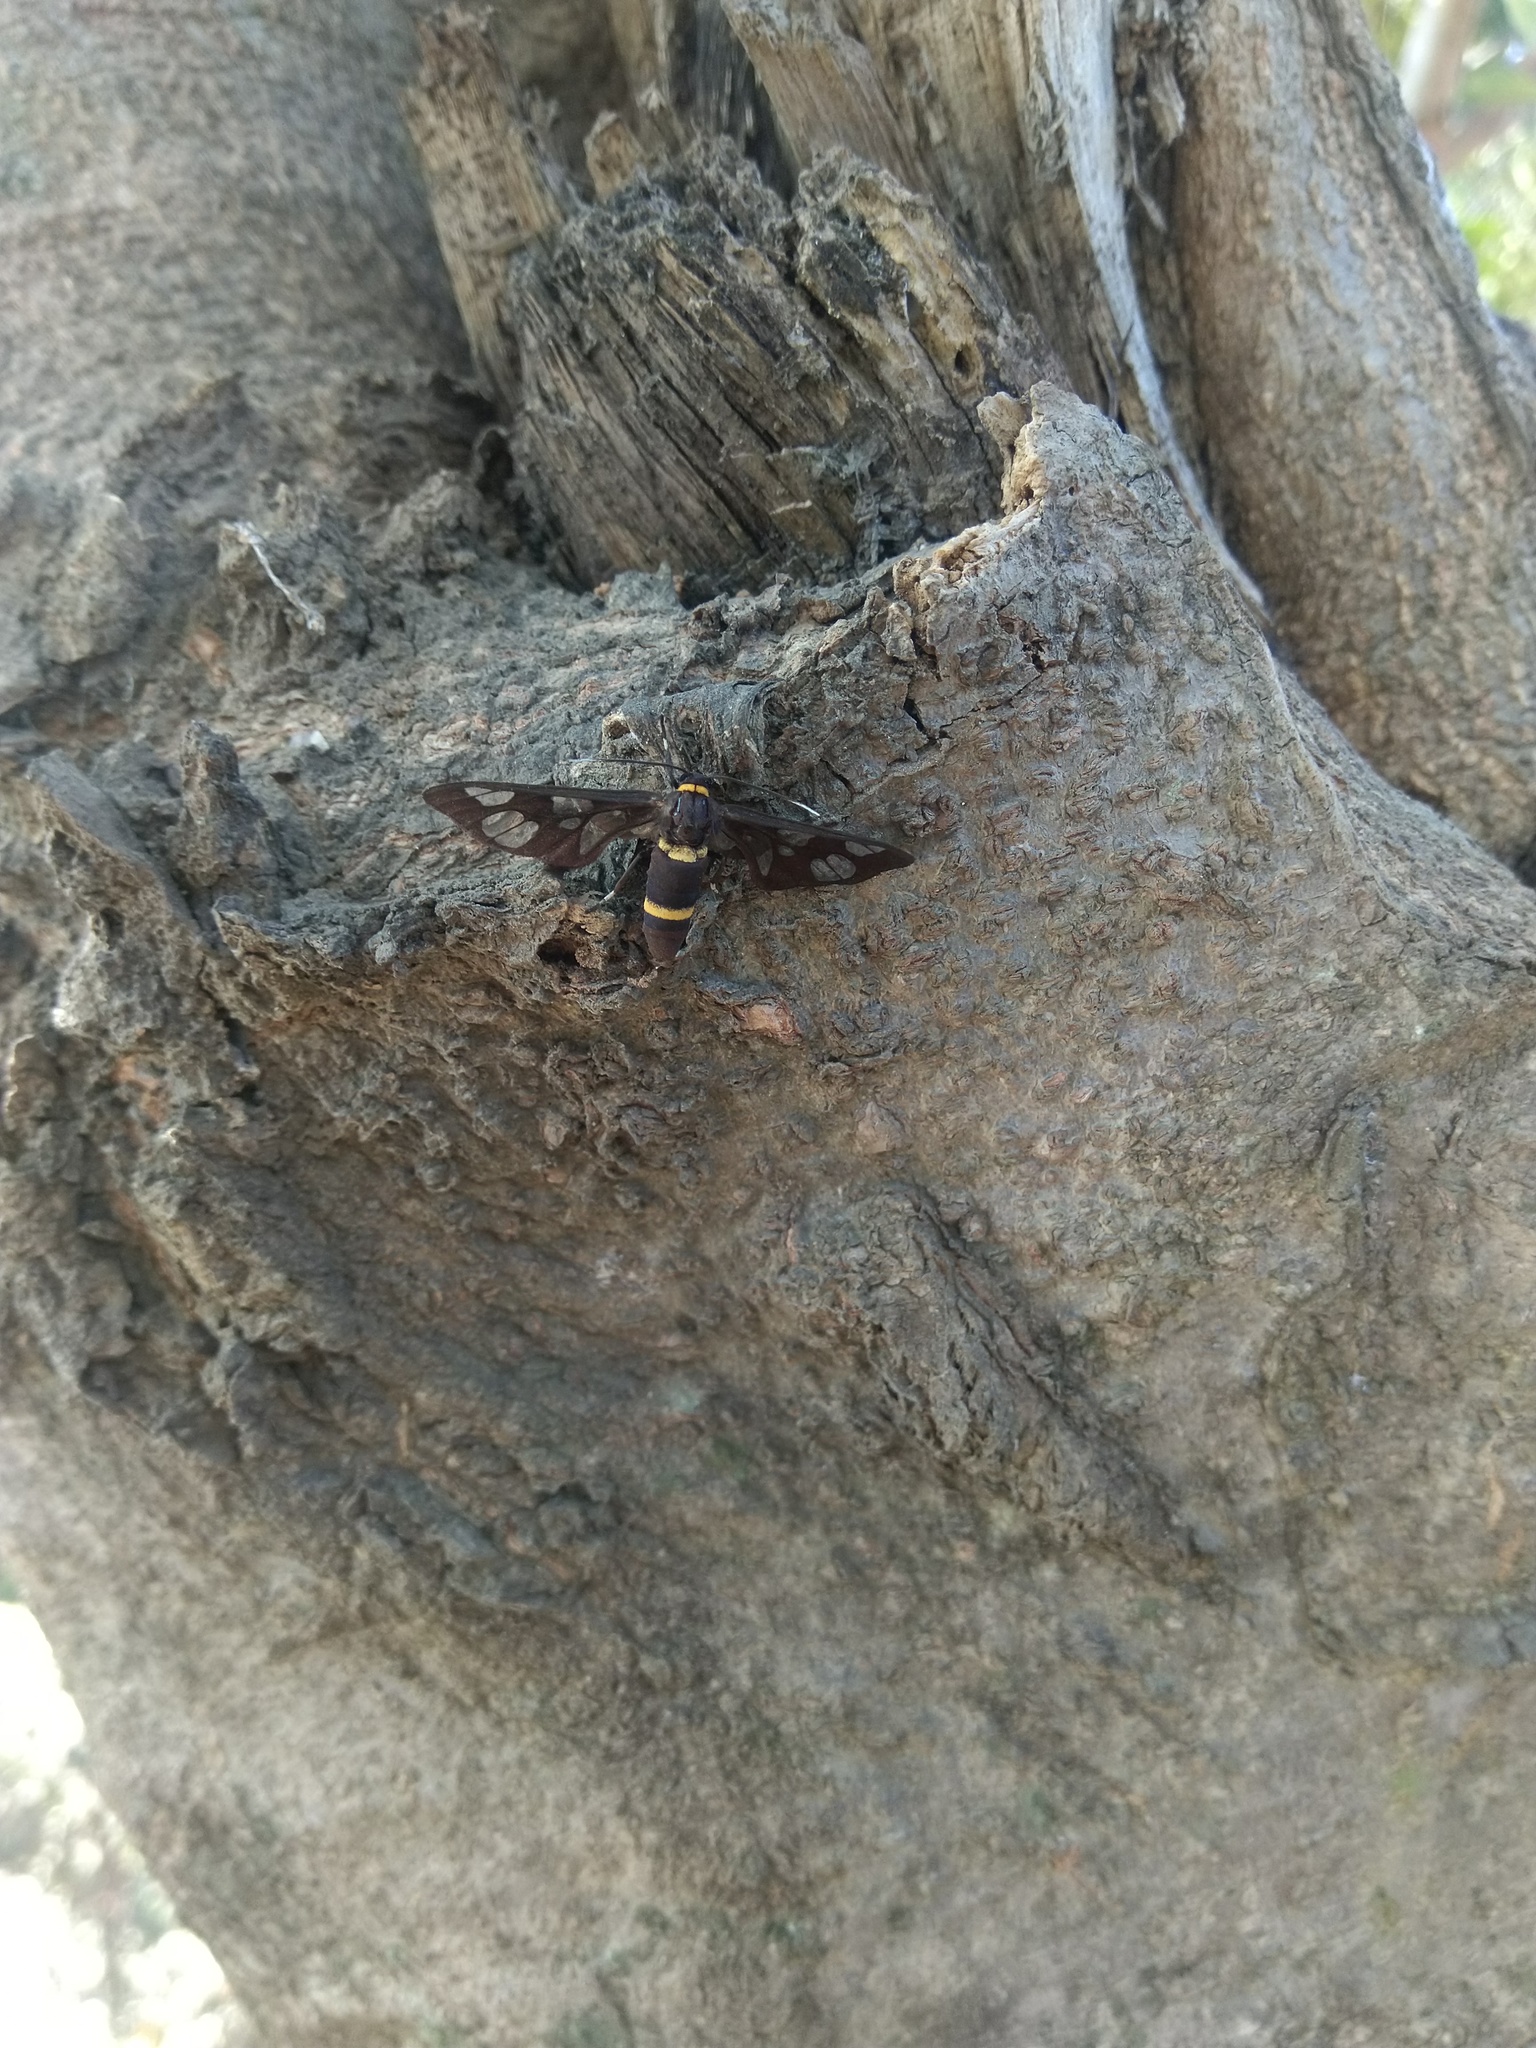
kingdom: Animalia
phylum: Arthropoda
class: Insecta
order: Lepidoptera
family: Erebidae
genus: Syntomoides
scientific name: Syntomoides imaon
